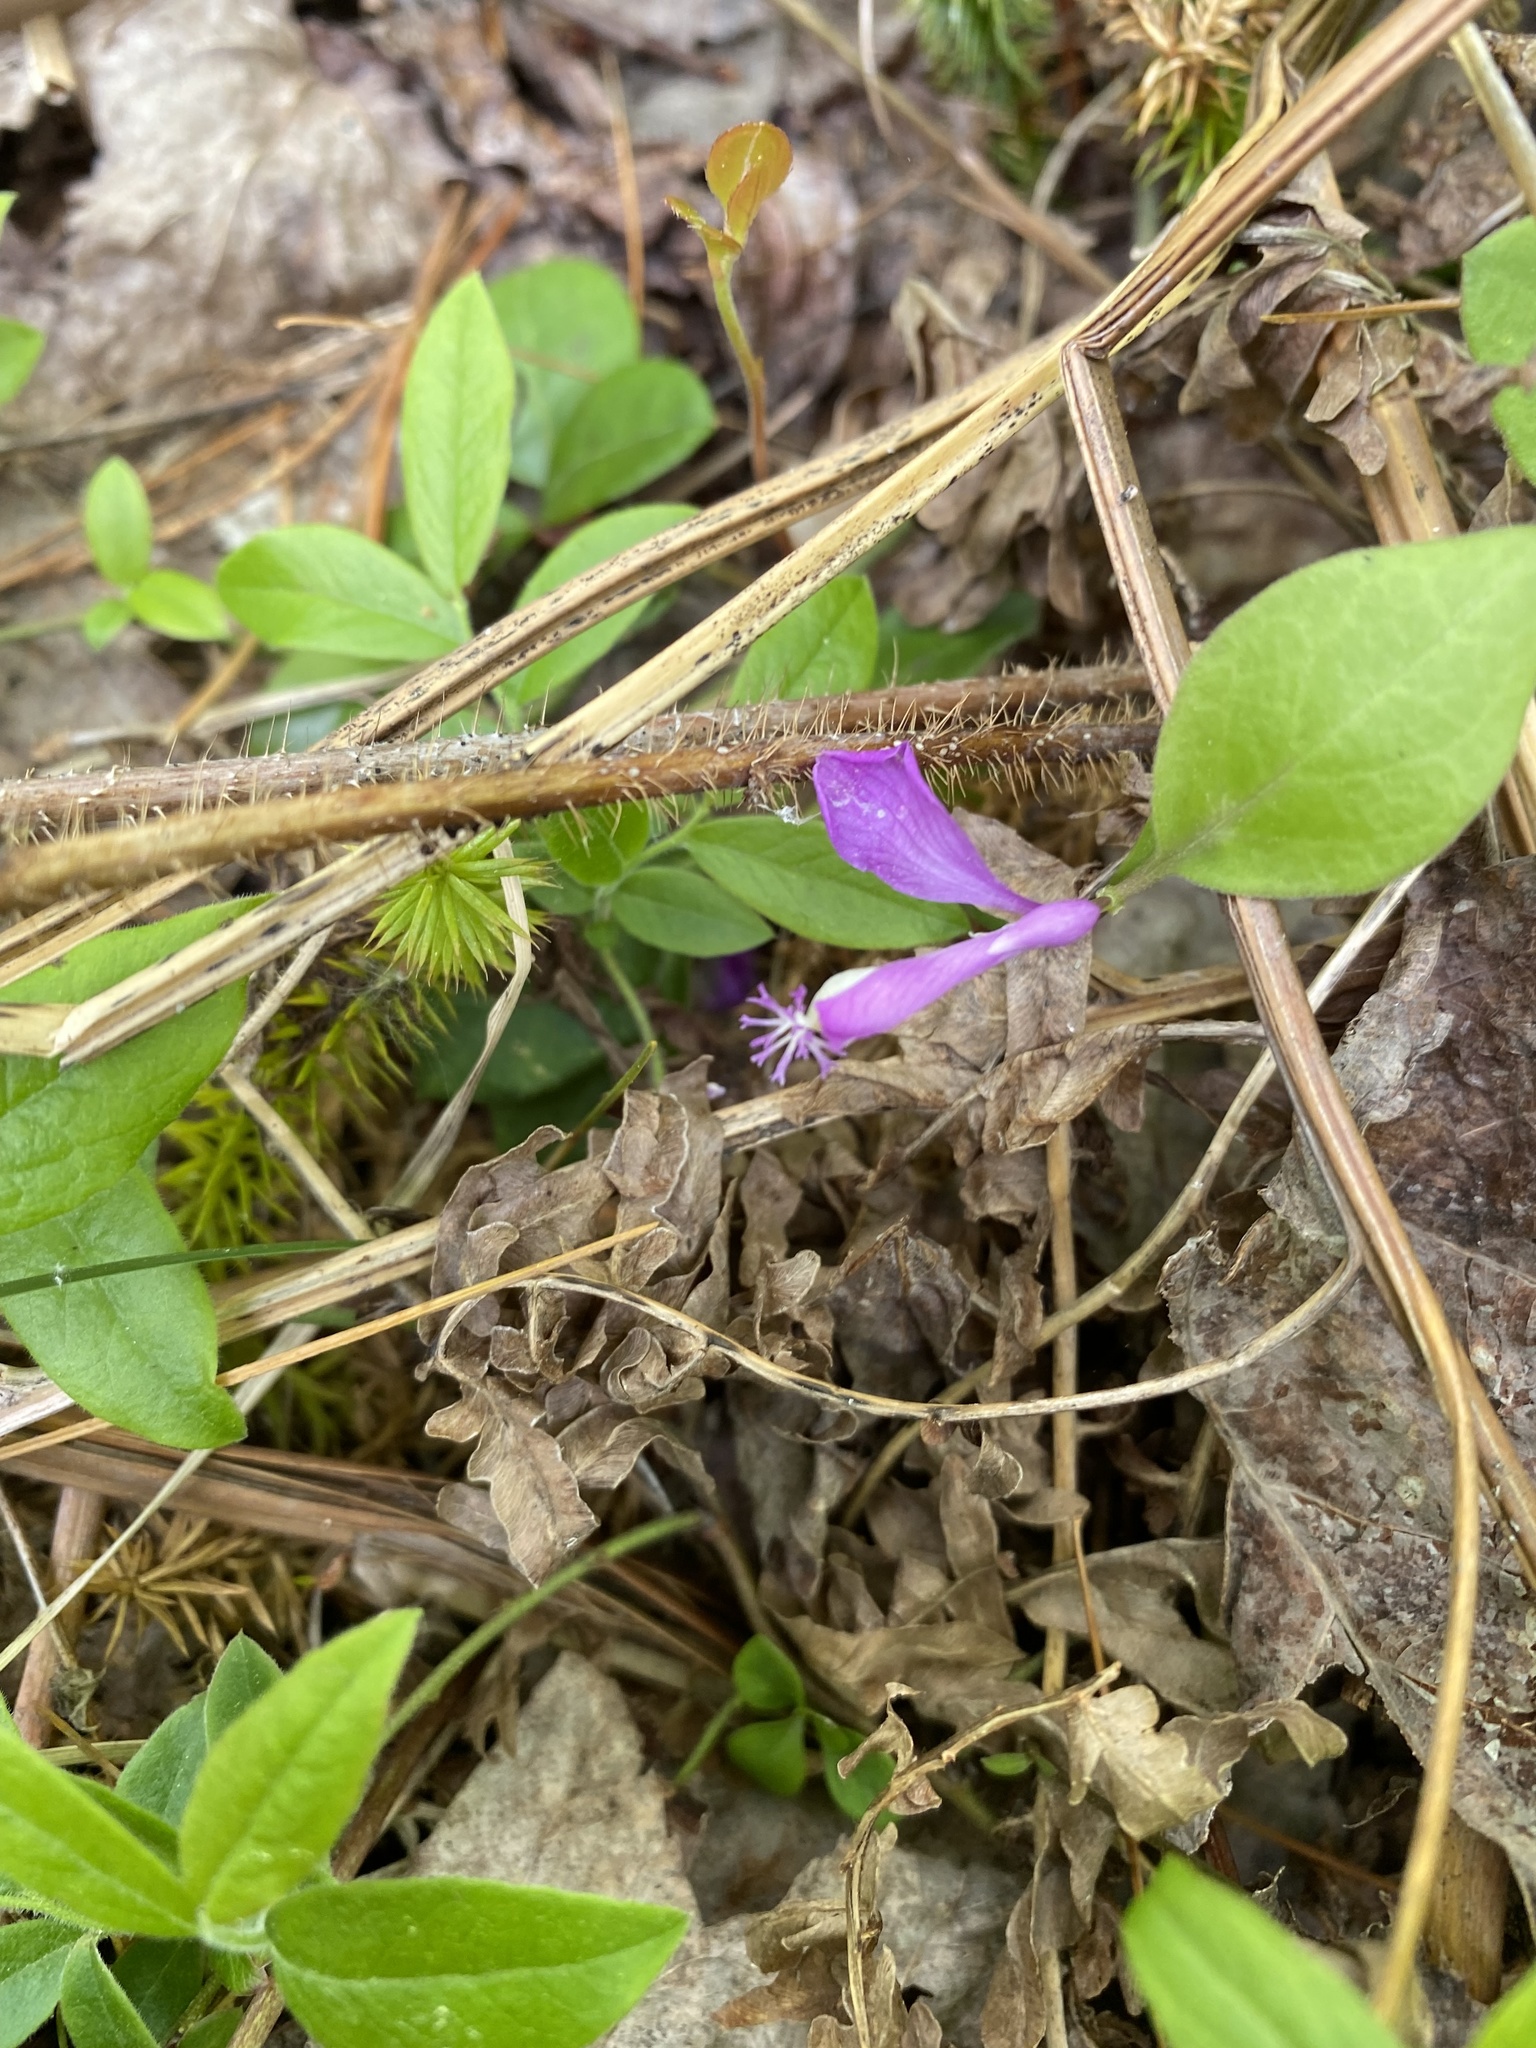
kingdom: Plantae
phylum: Tracheophyta
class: Magnoliopsida
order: Fabales
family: Polygalaceae
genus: Polygaloides
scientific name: Polygaloides paucifolia
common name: Bird-on-the-wing
